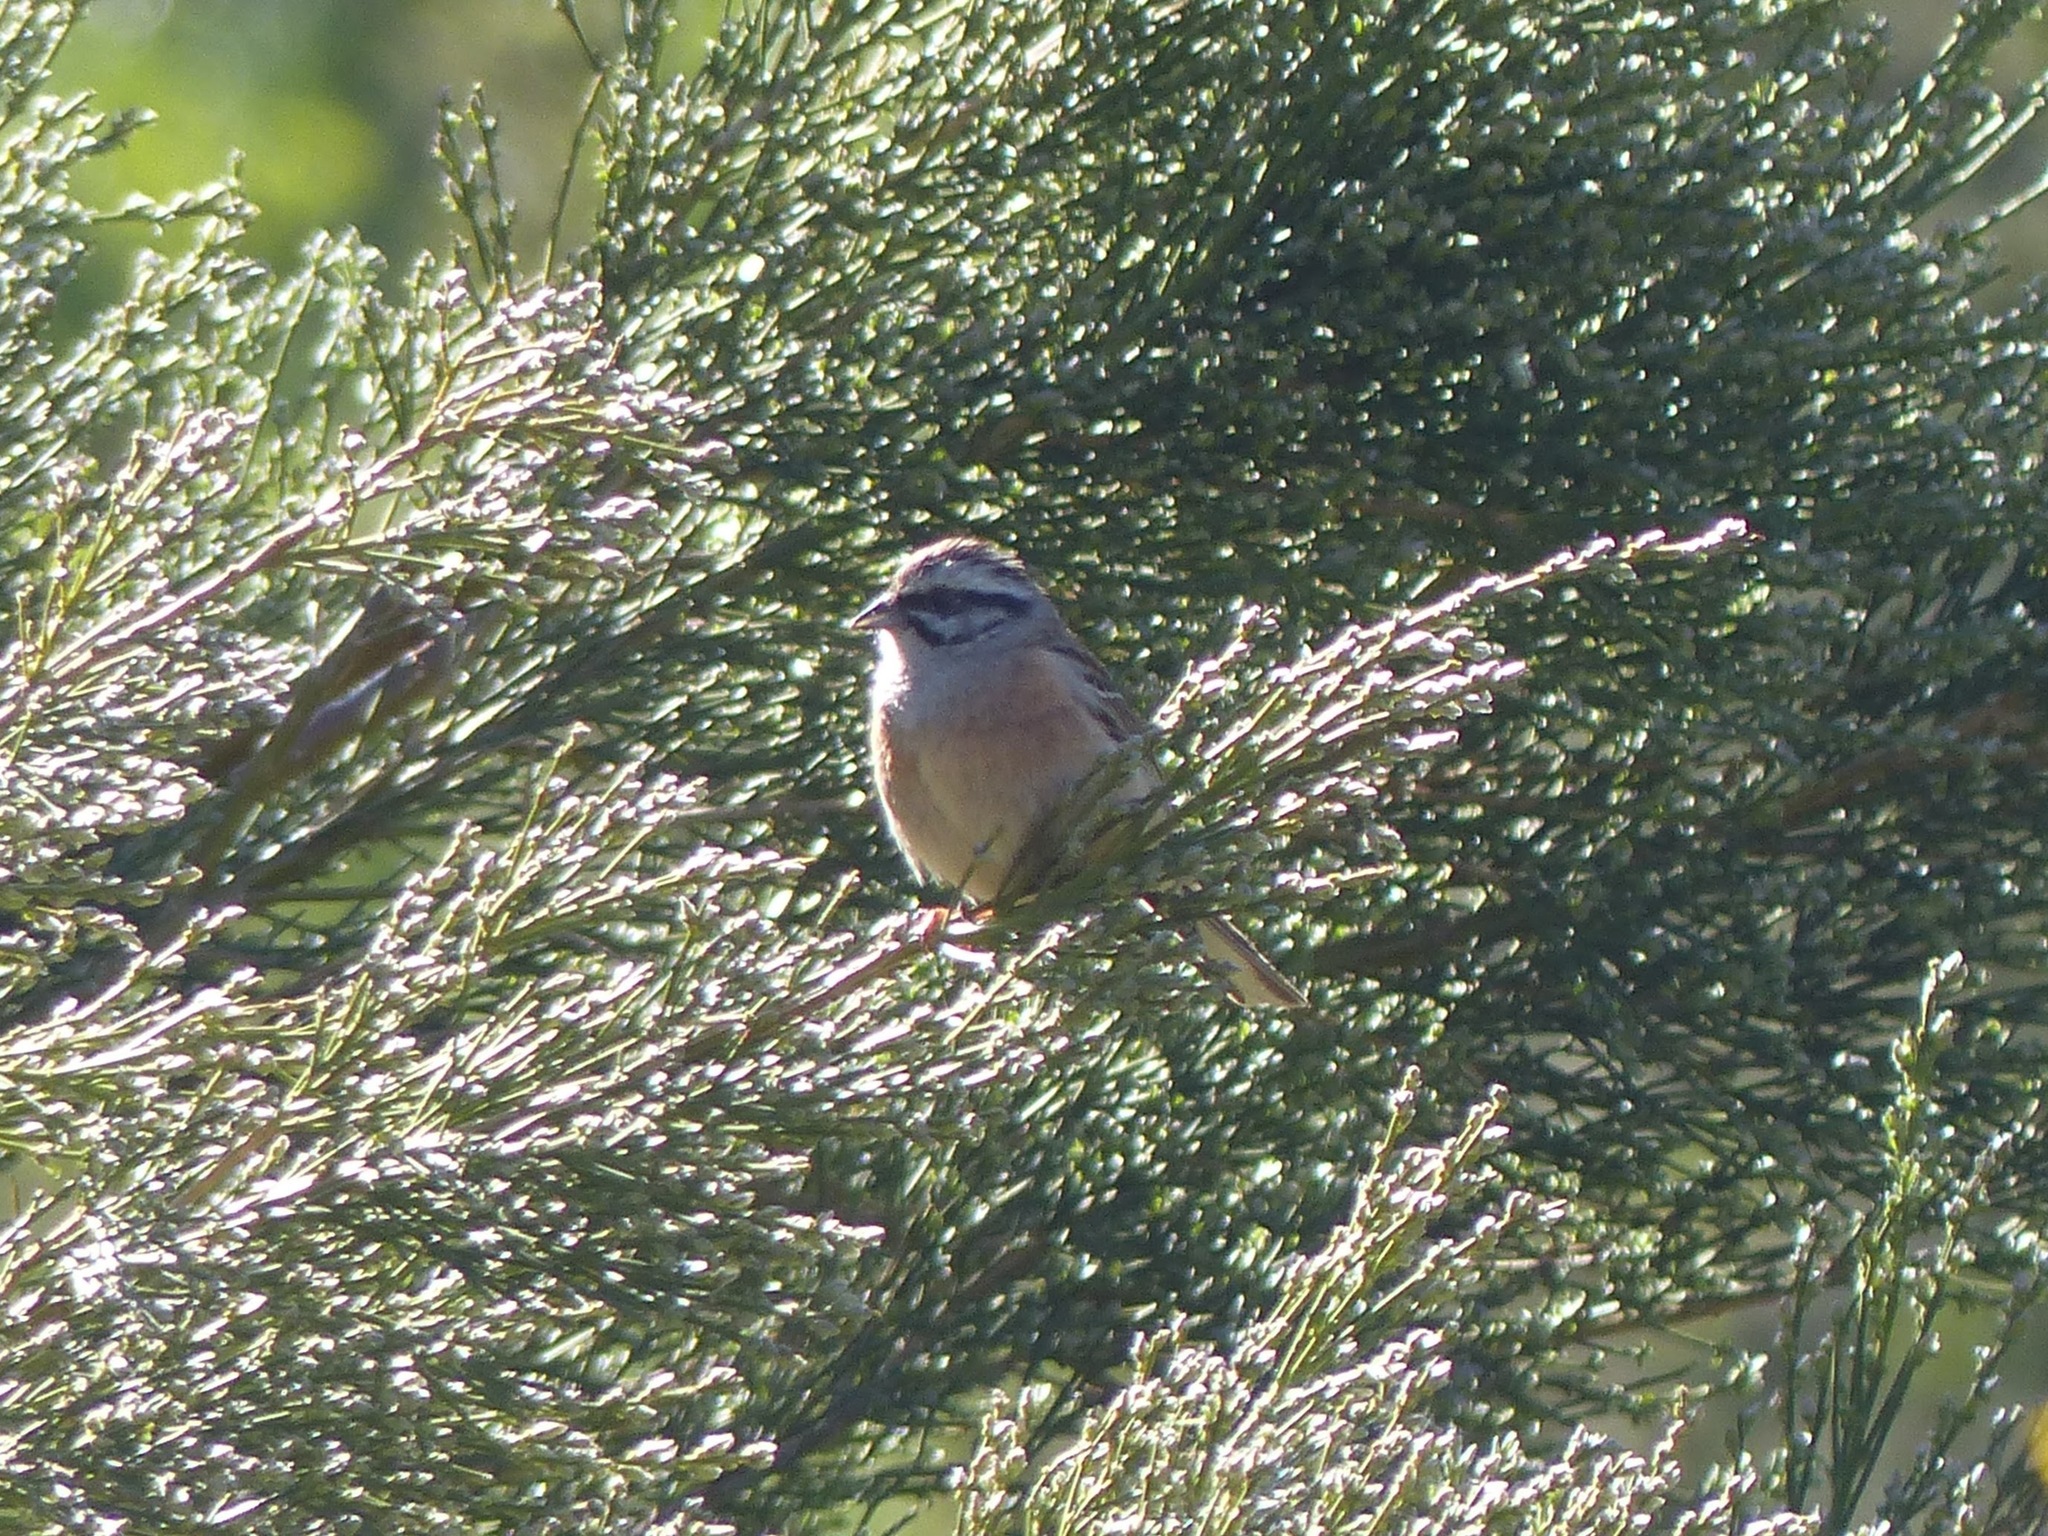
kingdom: Animalia
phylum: Chordata
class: Aves
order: Passeriformes
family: Emberizidae
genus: Emberiza
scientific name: Emberiza cia
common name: Rock bunting
